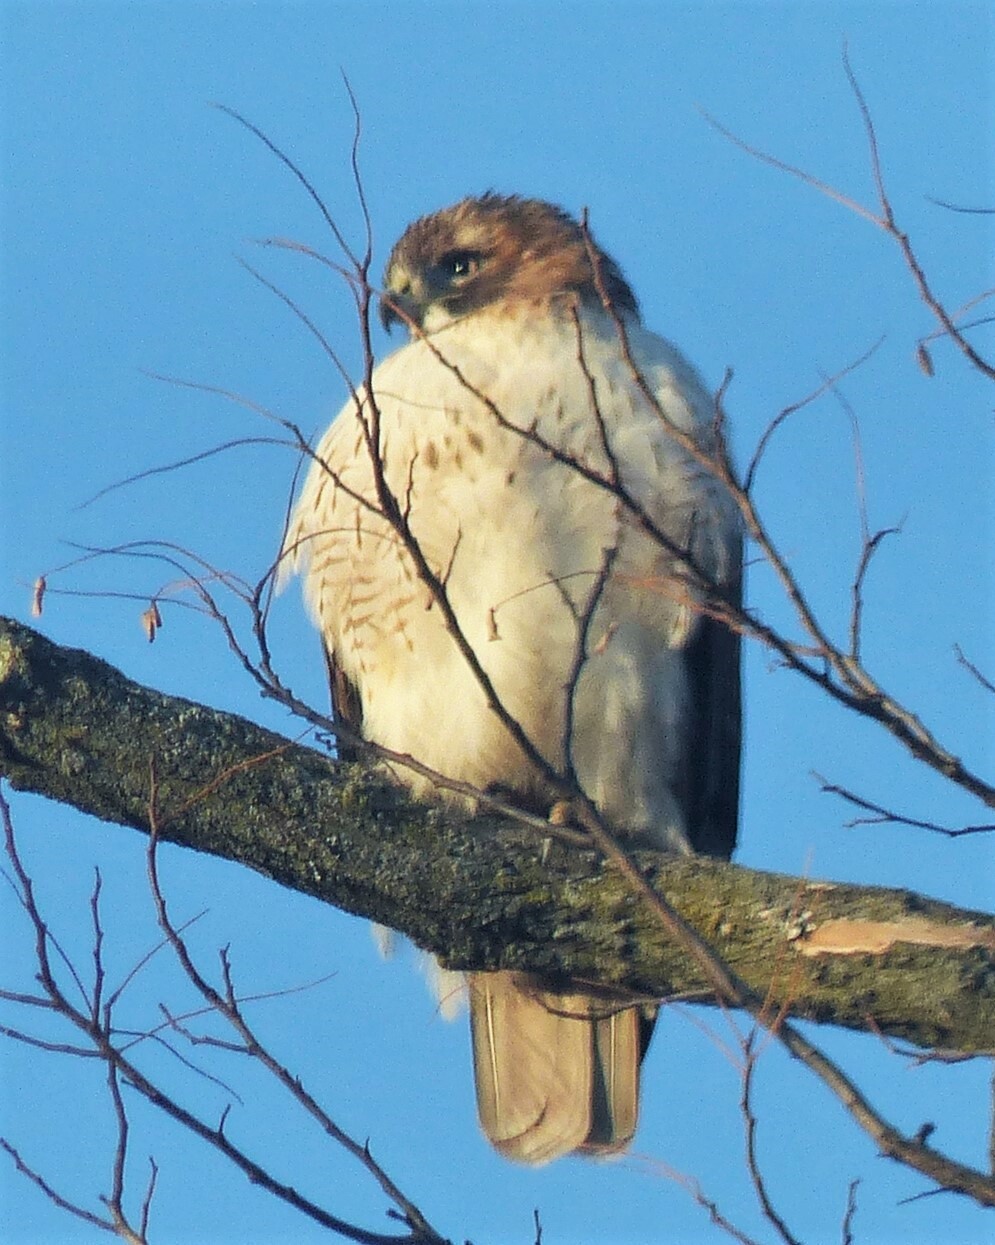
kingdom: Animalia
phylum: Chordata
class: Aves
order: Accipitriformes
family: Accipitridae
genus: Buteo
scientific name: Buteo jamaicensis
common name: Red-tailed hawk
